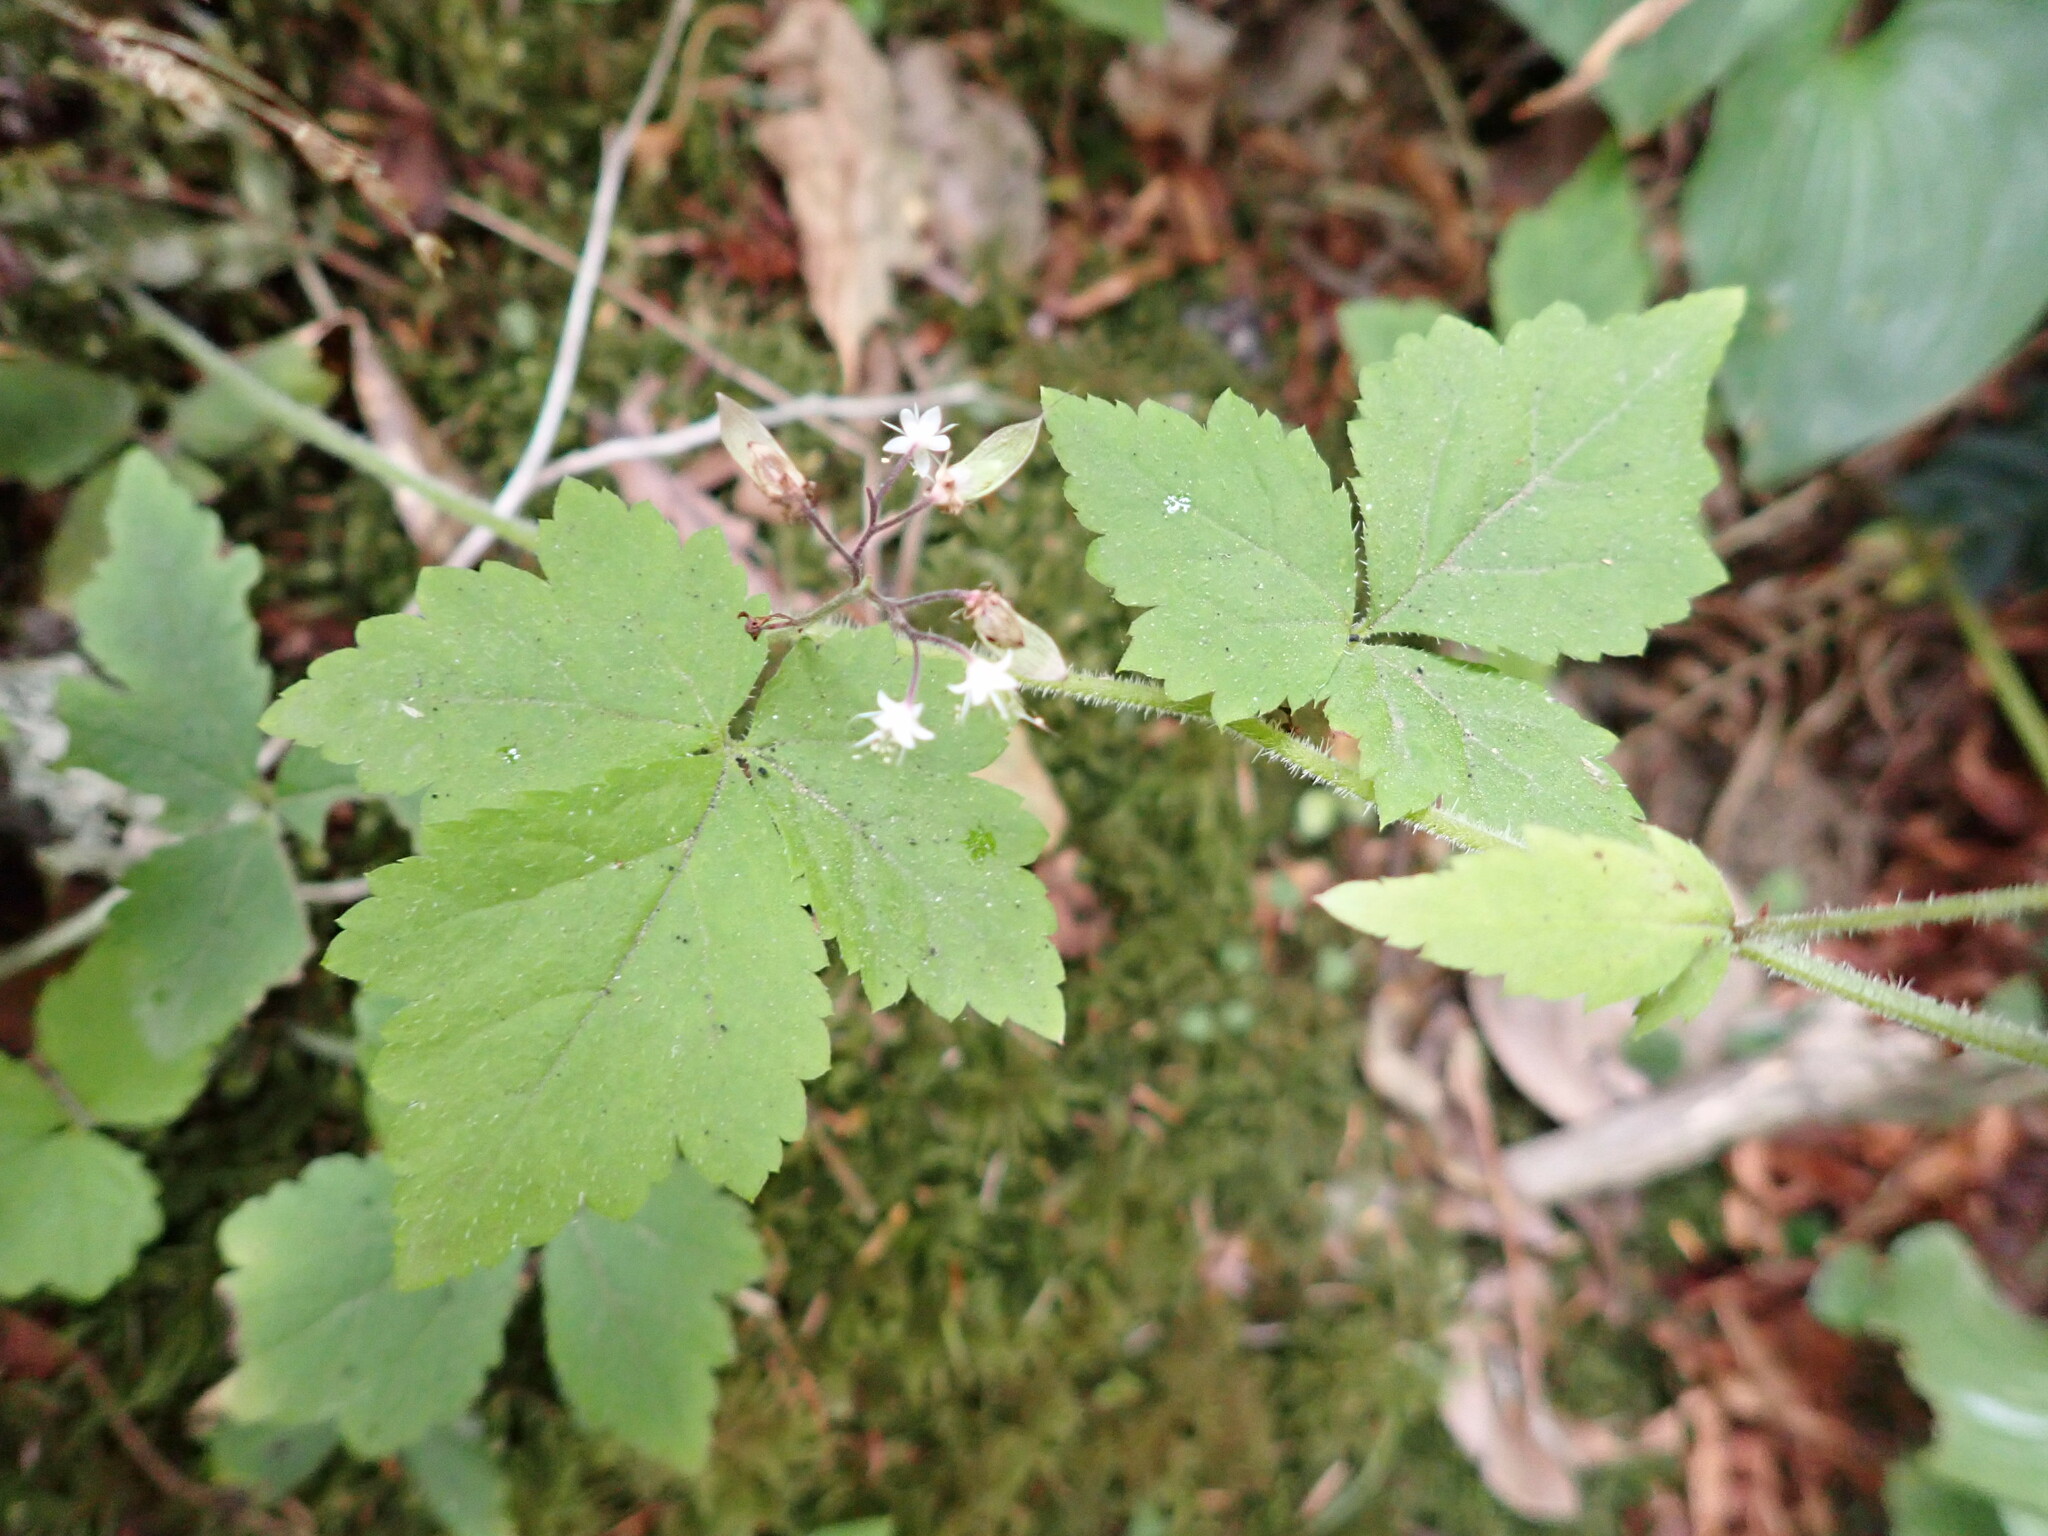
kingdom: Plantae
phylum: Tracheophyta
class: Magnoliopsida
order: Saxifragales
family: Saxifragaceae
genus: Tiarella
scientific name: Tiarella trifoliata
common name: Sugar-scoop
